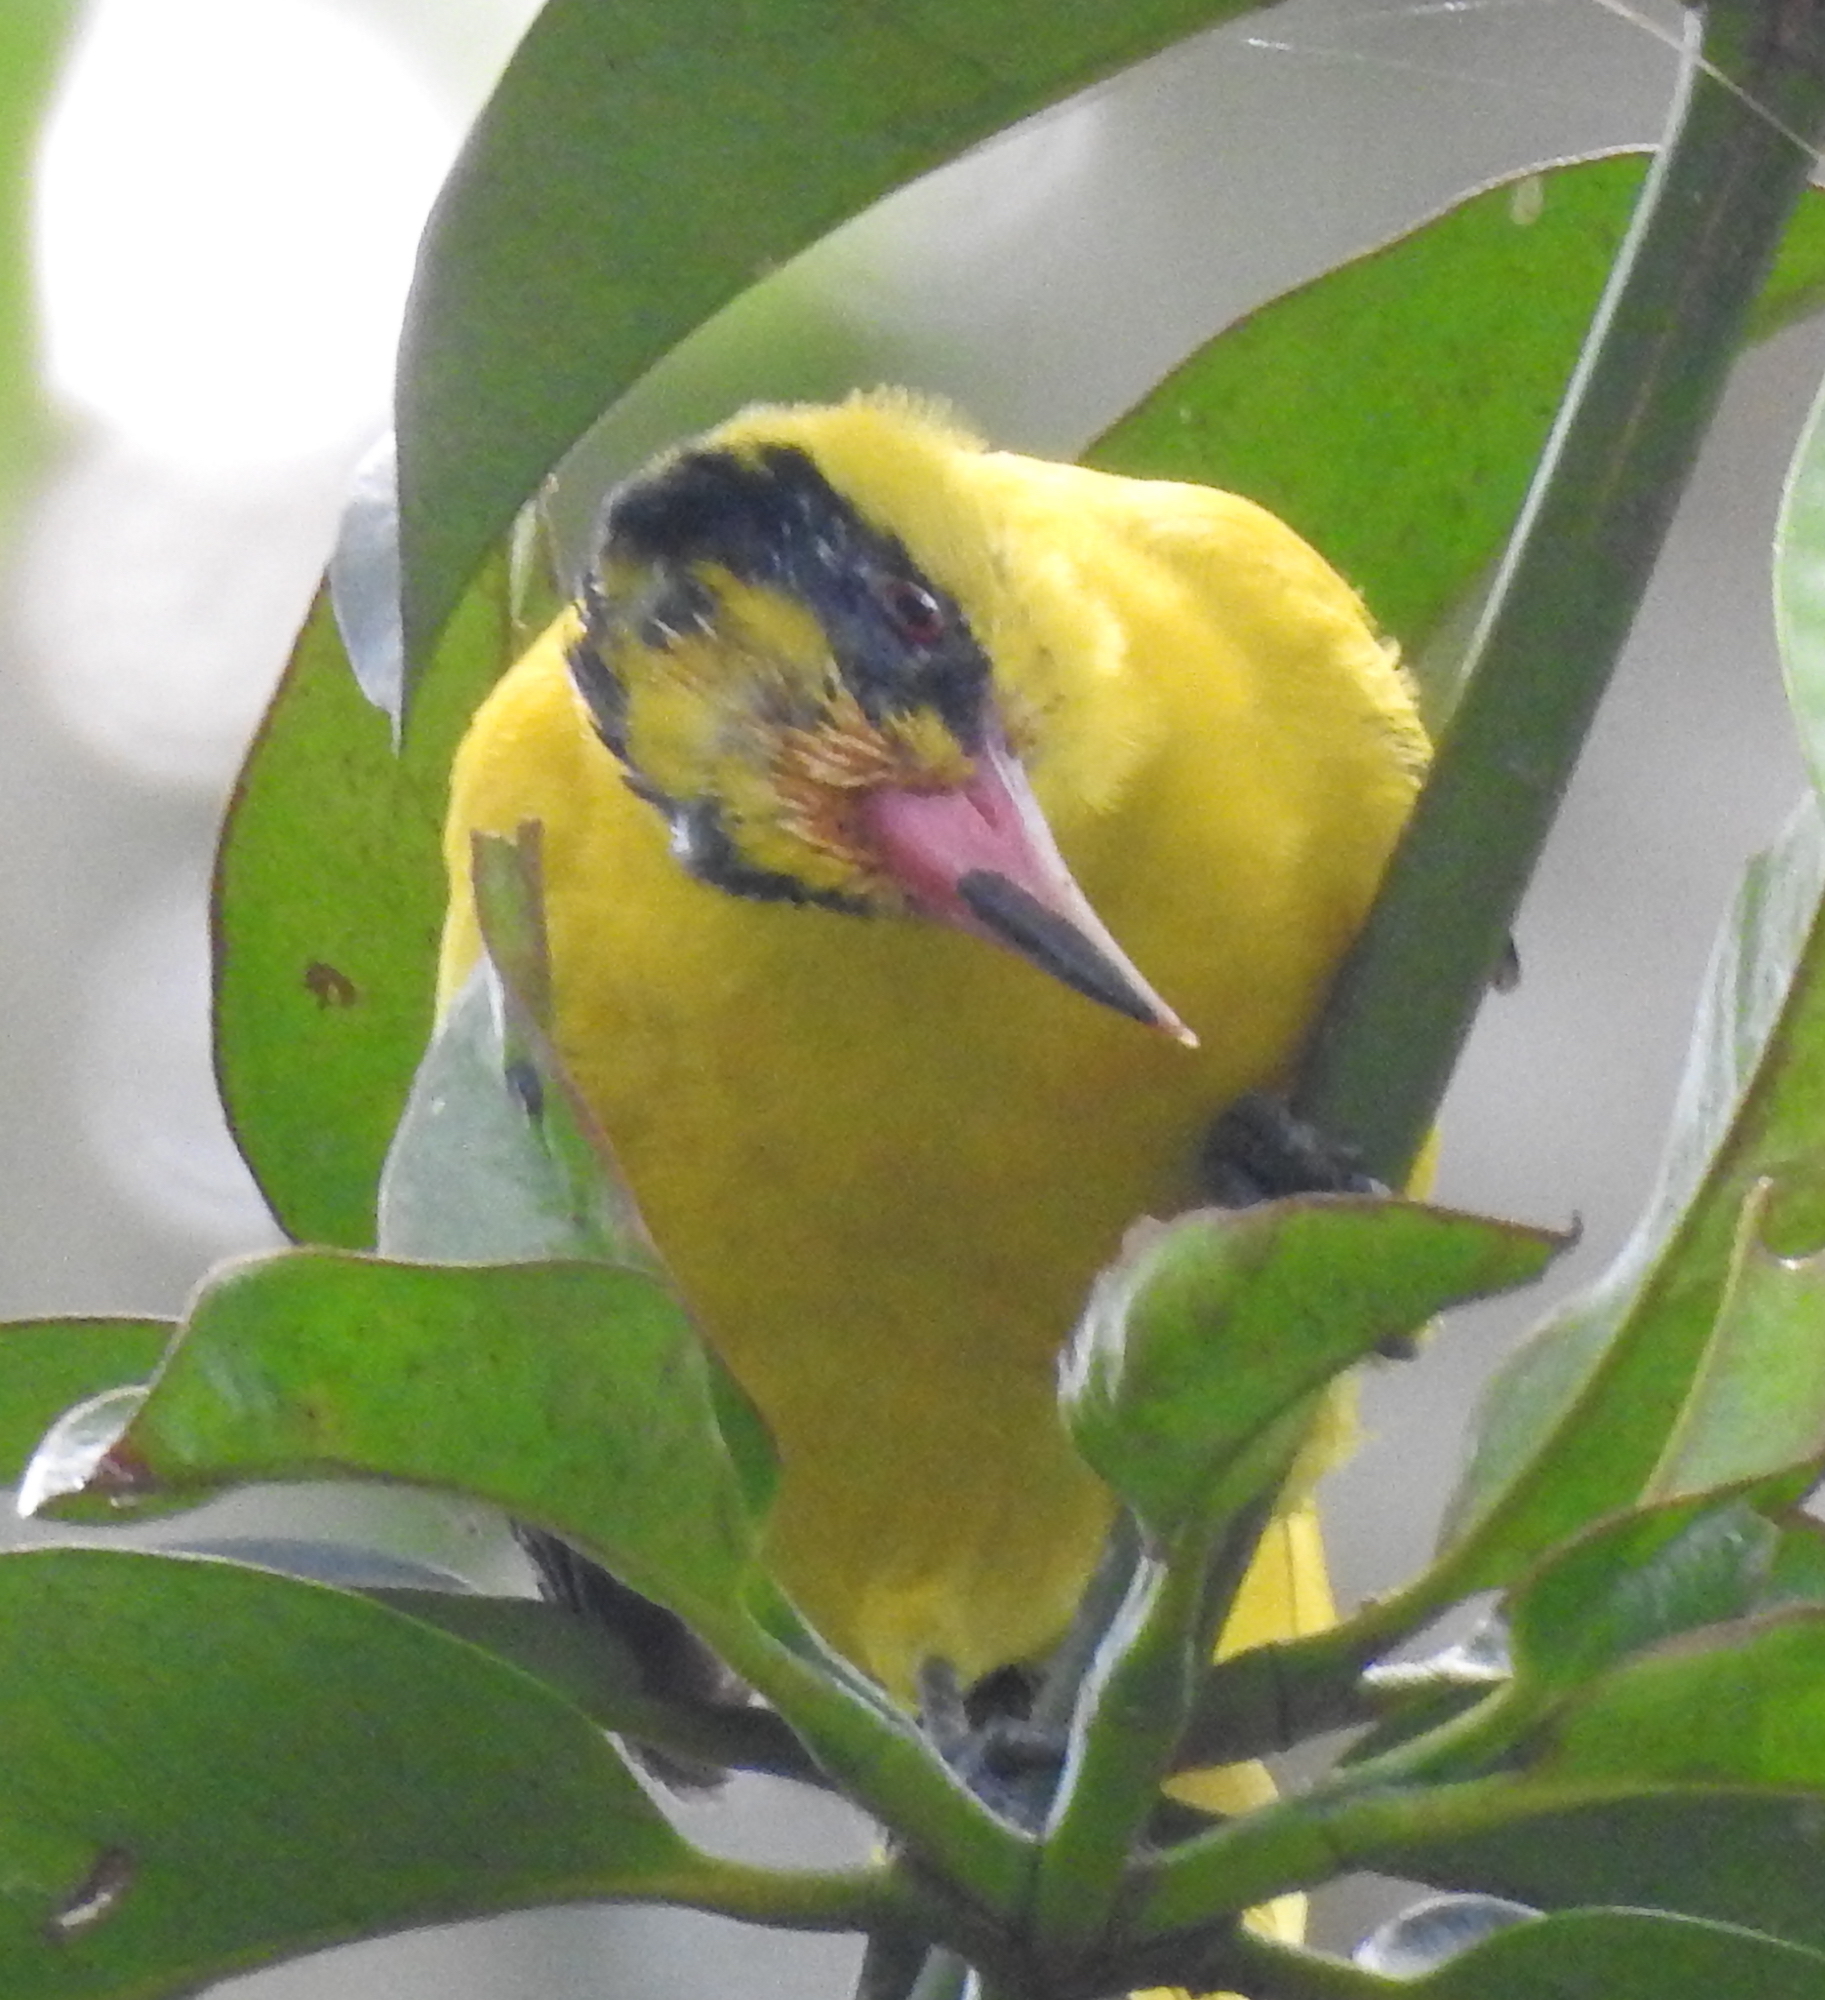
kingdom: Animalia
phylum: Chordata
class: Aves
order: Passeriformes
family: Oriolidae
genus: Oriolus
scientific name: Oriolus chinensis
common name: Black-naped oriole
